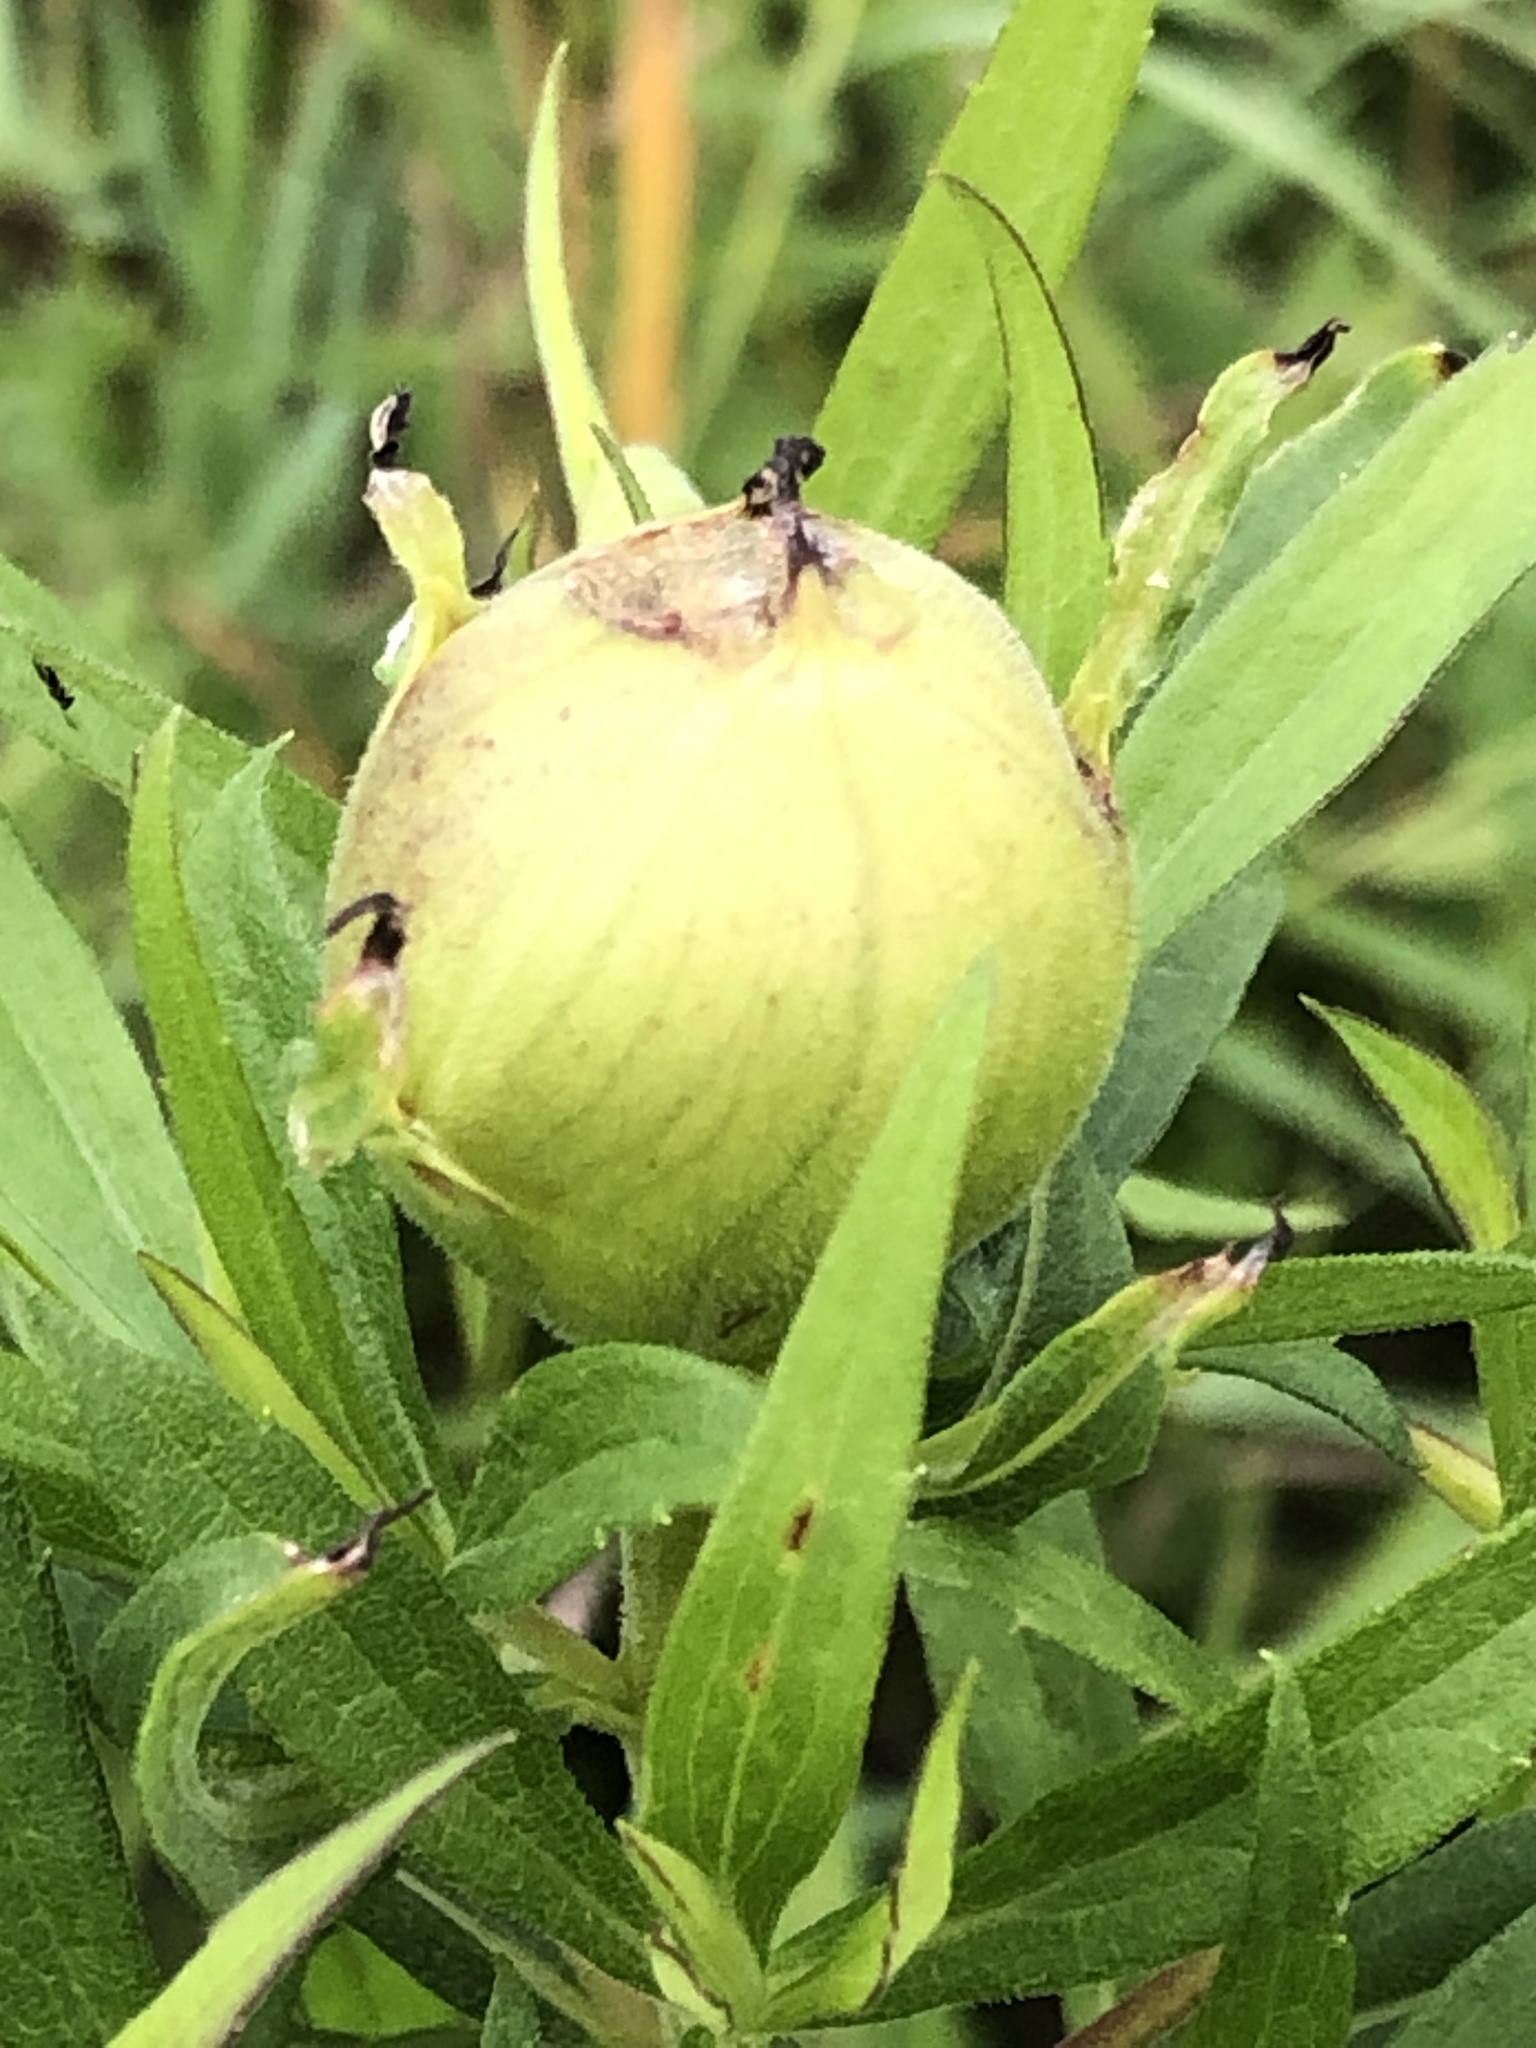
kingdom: Animalia
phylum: Arthropoda
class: Insecta
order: Diptera
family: Tephritidae
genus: Eurosta
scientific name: Eurosta solidaginis
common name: Goldenrod gall fly
